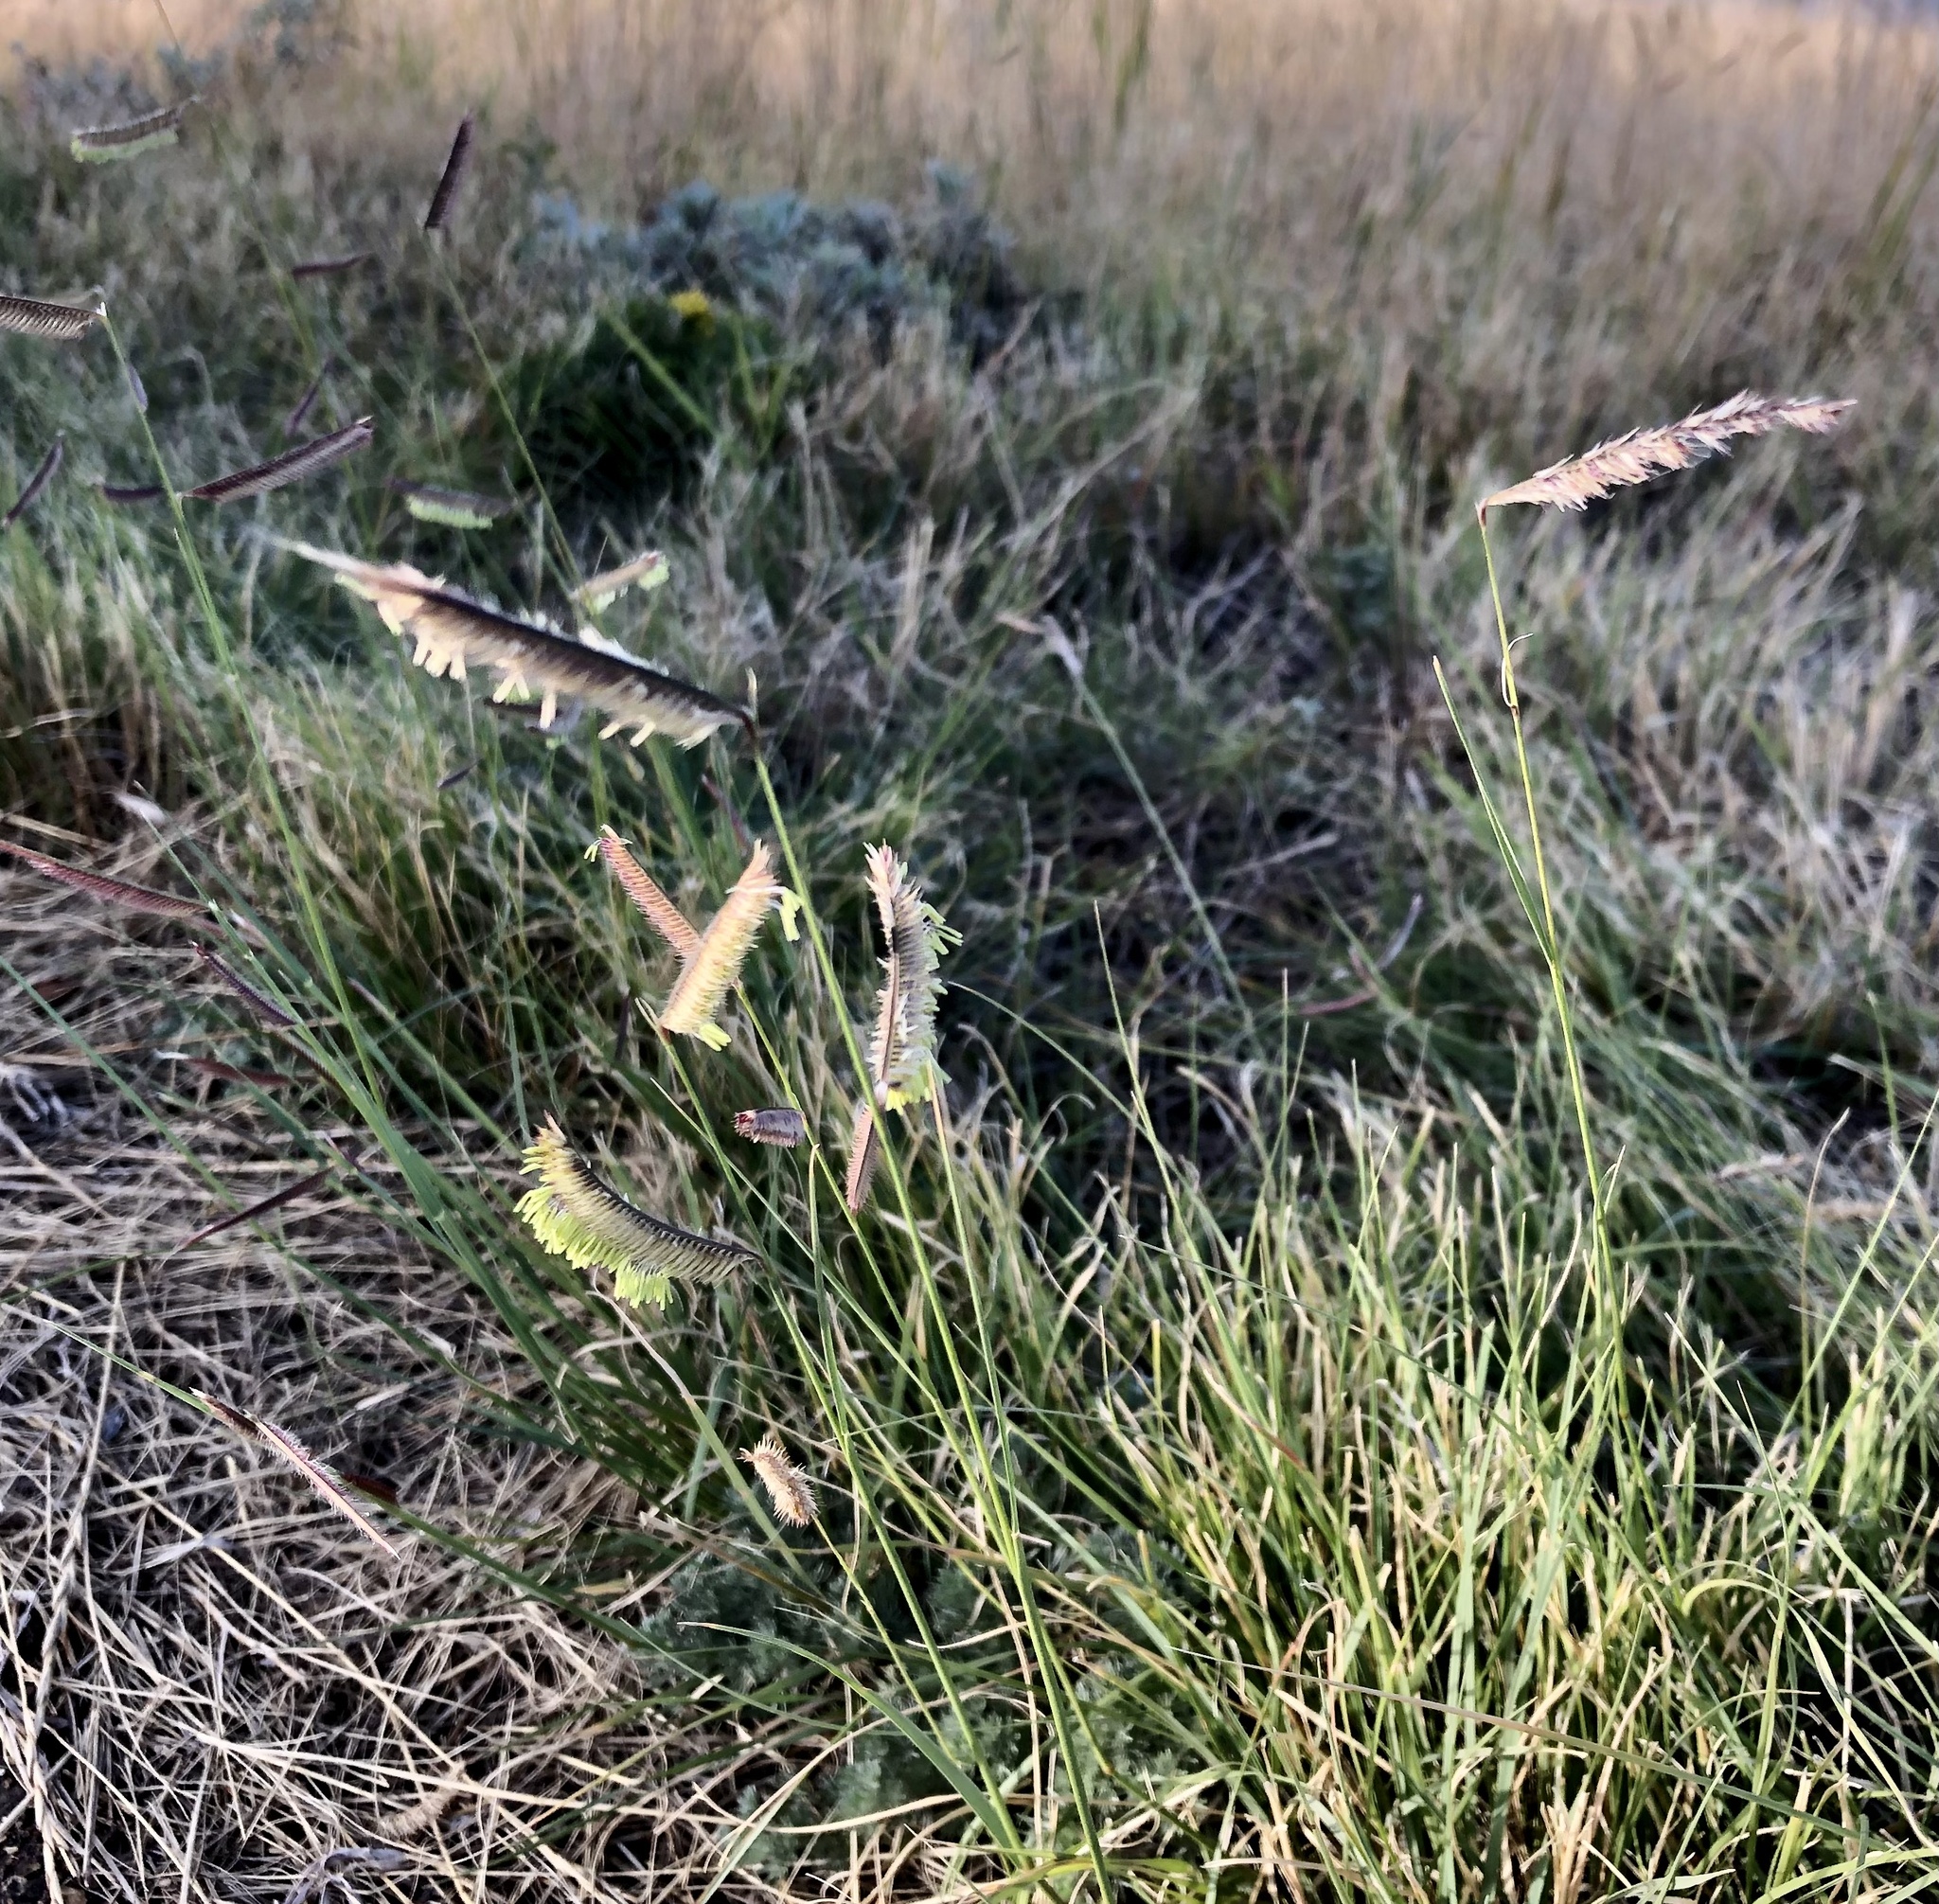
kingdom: Plantae
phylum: Tracheophyta
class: Liliopsida
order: Poales
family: Poaceae
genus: Bouteloua
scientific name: Bouteloua gracilis
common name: Blue grama
